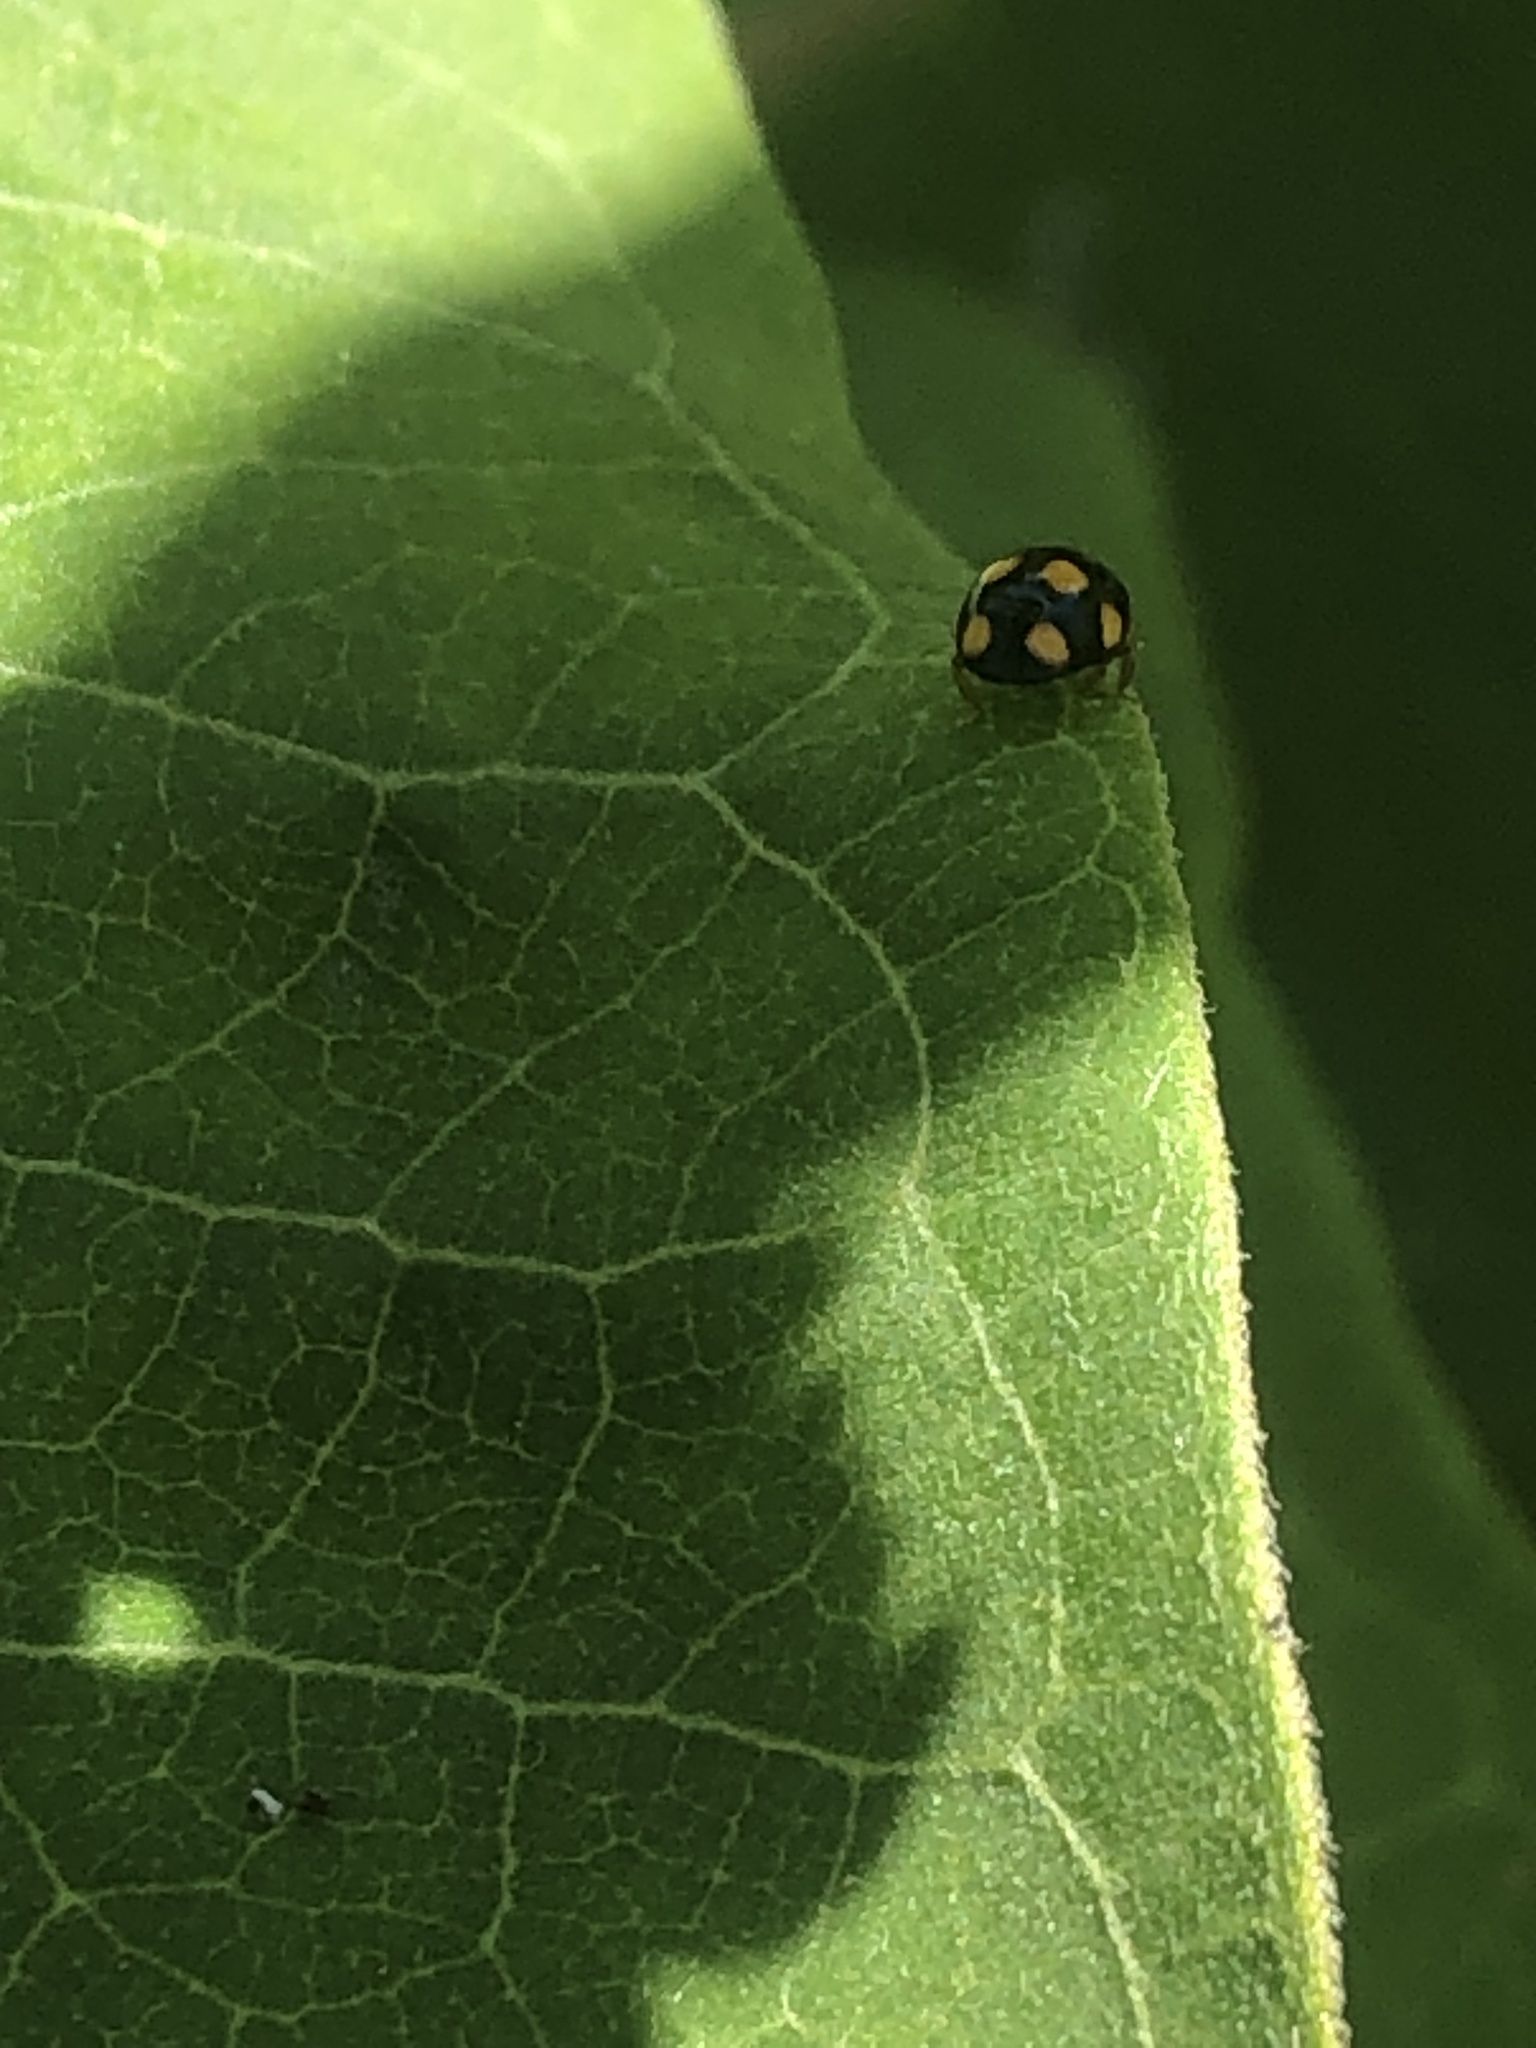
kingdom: Animalia
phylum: Arthropoda
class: Insecta
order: Coleoptera
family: Coccinellidae
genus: Brachiacantha
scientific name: Brachiacantha ursina
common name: Ursine spurleg lady beetle
